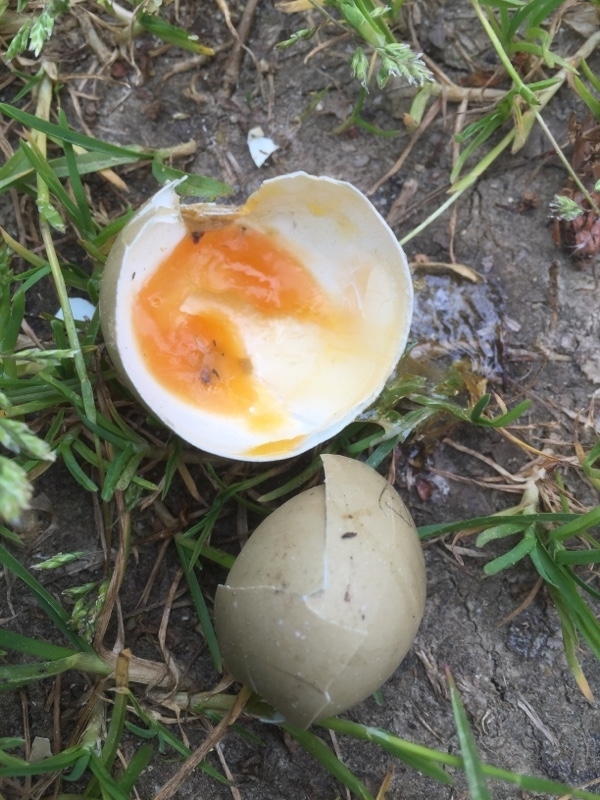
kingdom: Animalia
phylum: Chordata
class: Aves
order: Galliformes
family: Phasianidae
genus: Phasianus
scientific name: Phasianus colchicus
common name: Common pheasant
